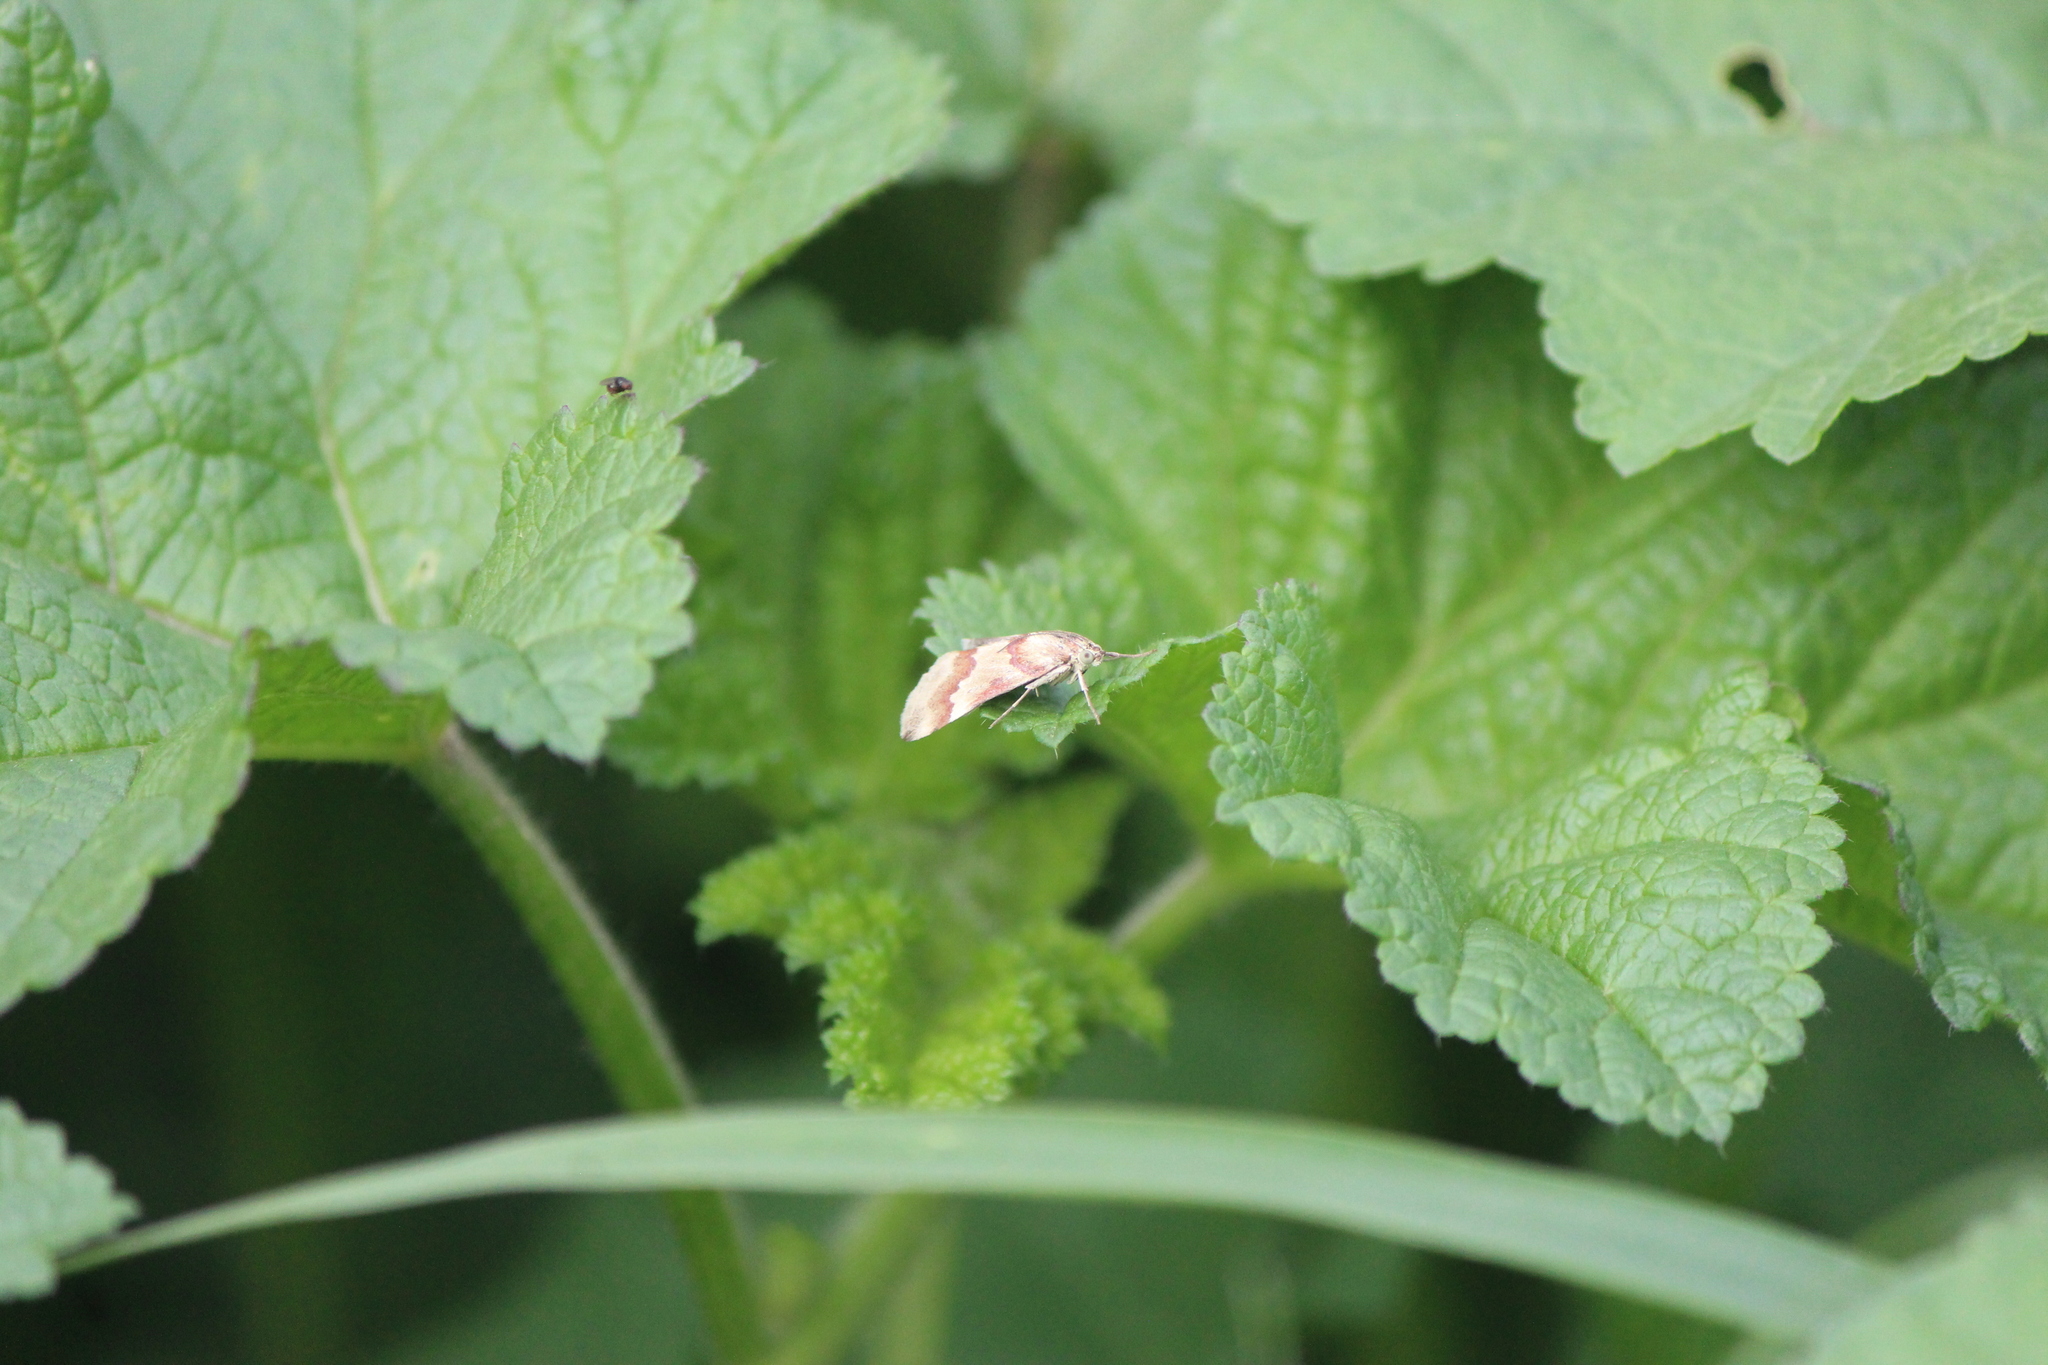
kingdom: Animalia
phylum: Arthropoda
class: Insecta
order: Lepidoptera
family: Crambidae
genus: Noctuelia
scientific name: Noctuelia Mimoschinia rufofascialis
